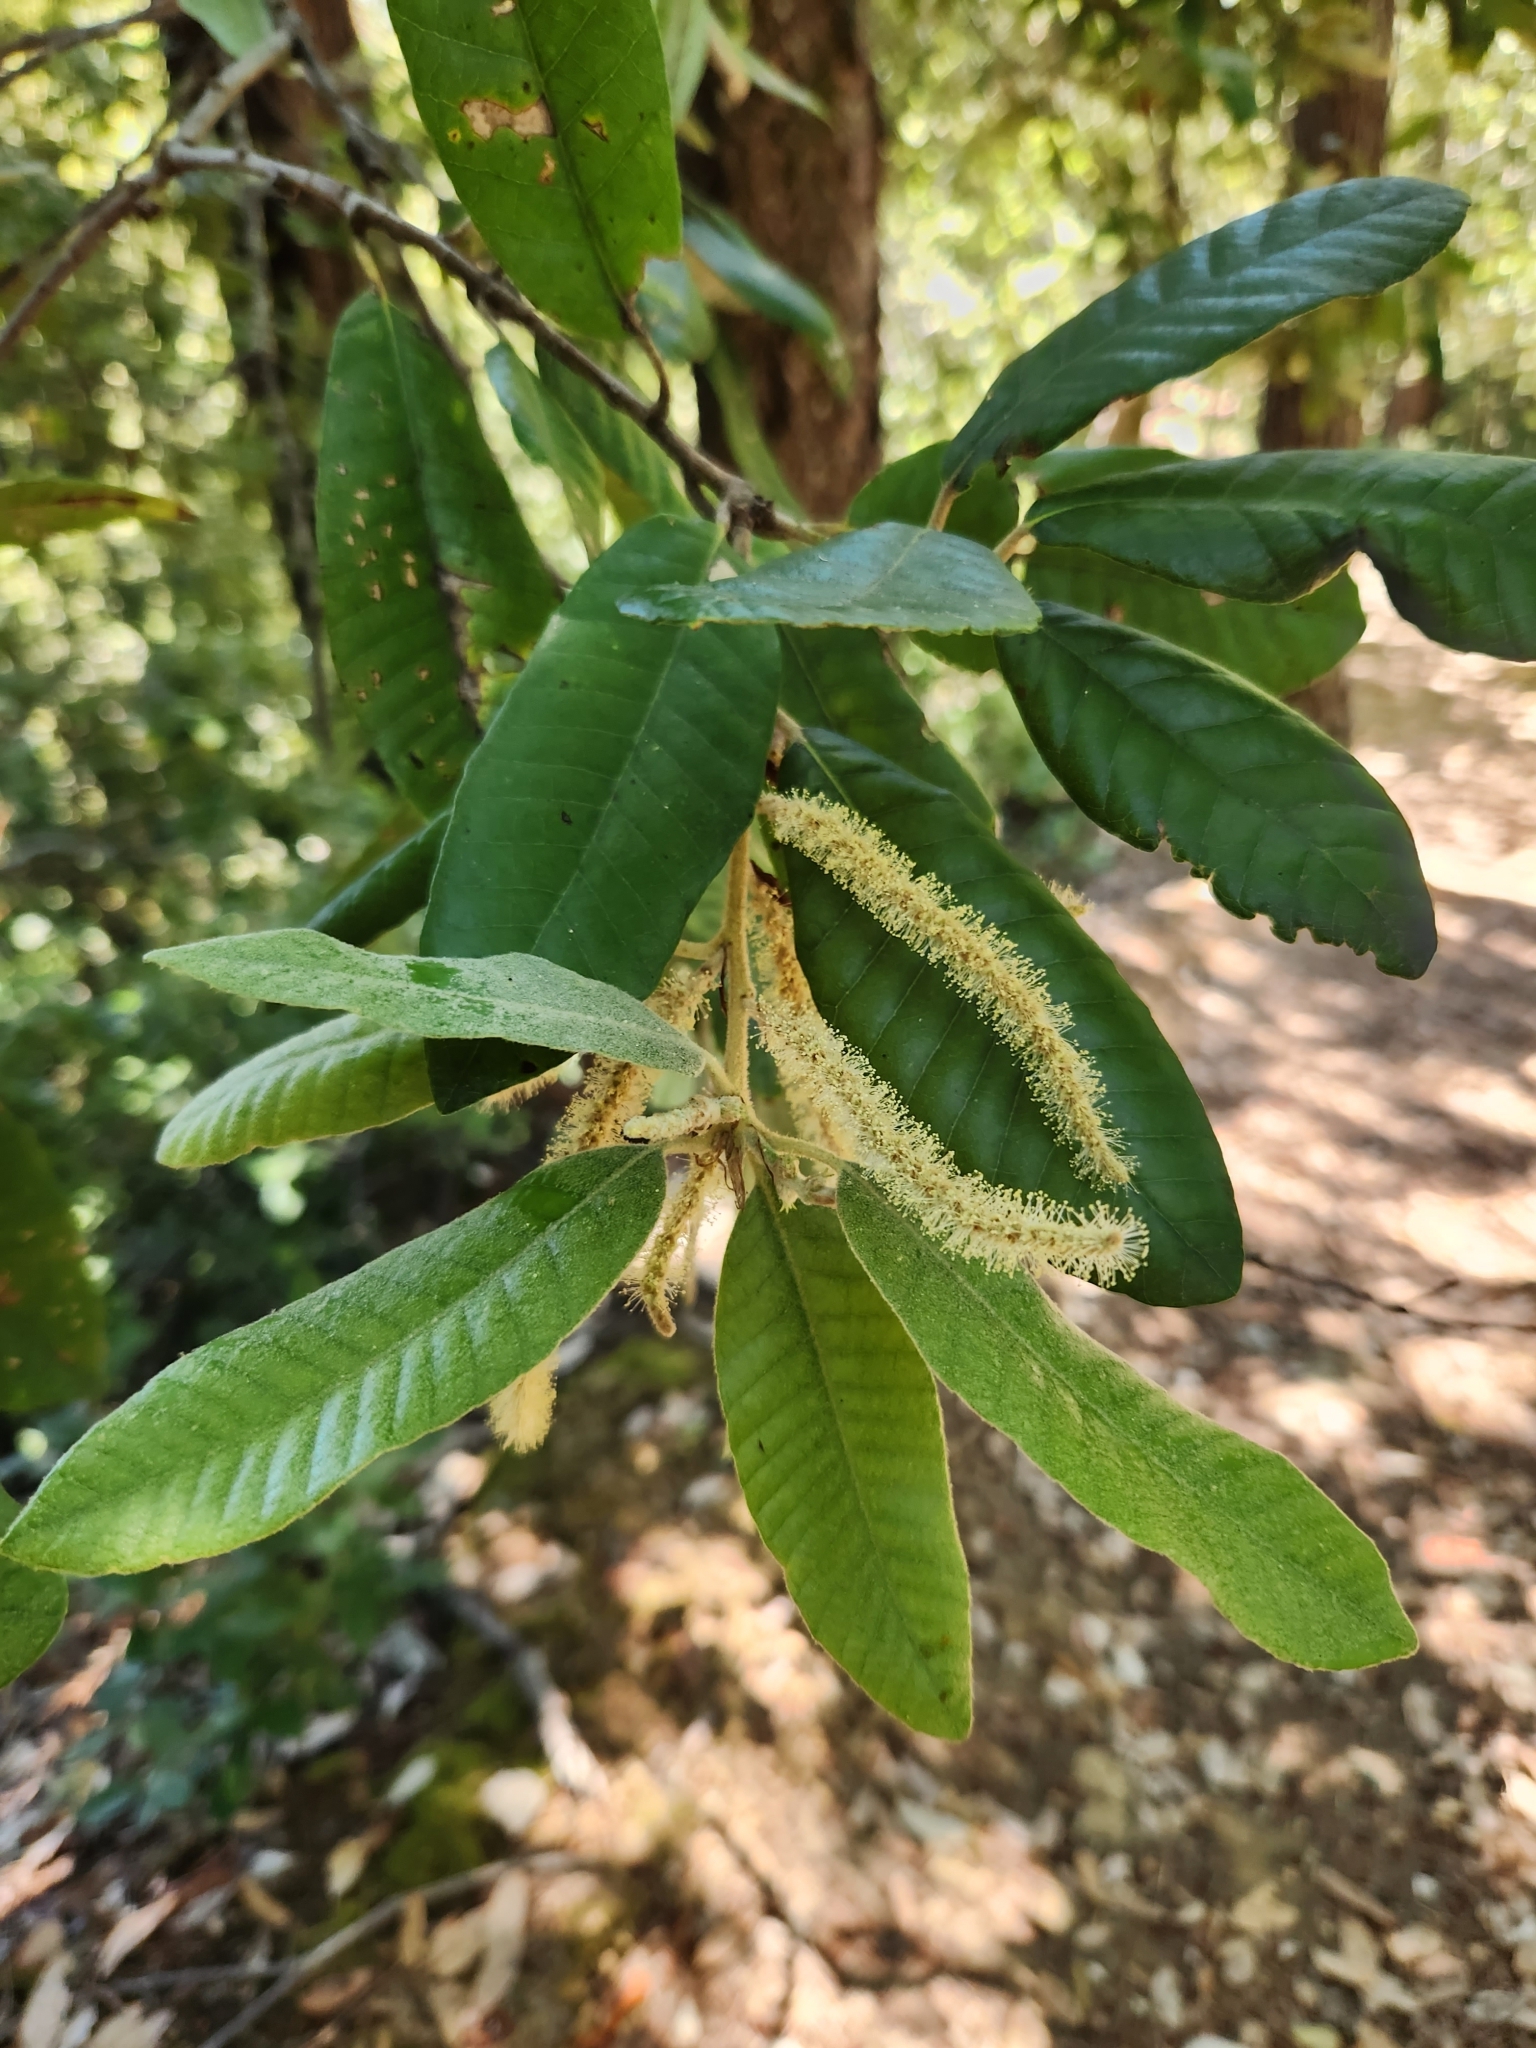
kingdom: Plantae
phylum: Tracheophyta
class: Magnoliopsida
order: Fagales
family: Fagaceae
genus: Notholithocarpus
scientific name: Notholithocarpus densiflorus
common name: Tan bark oak
